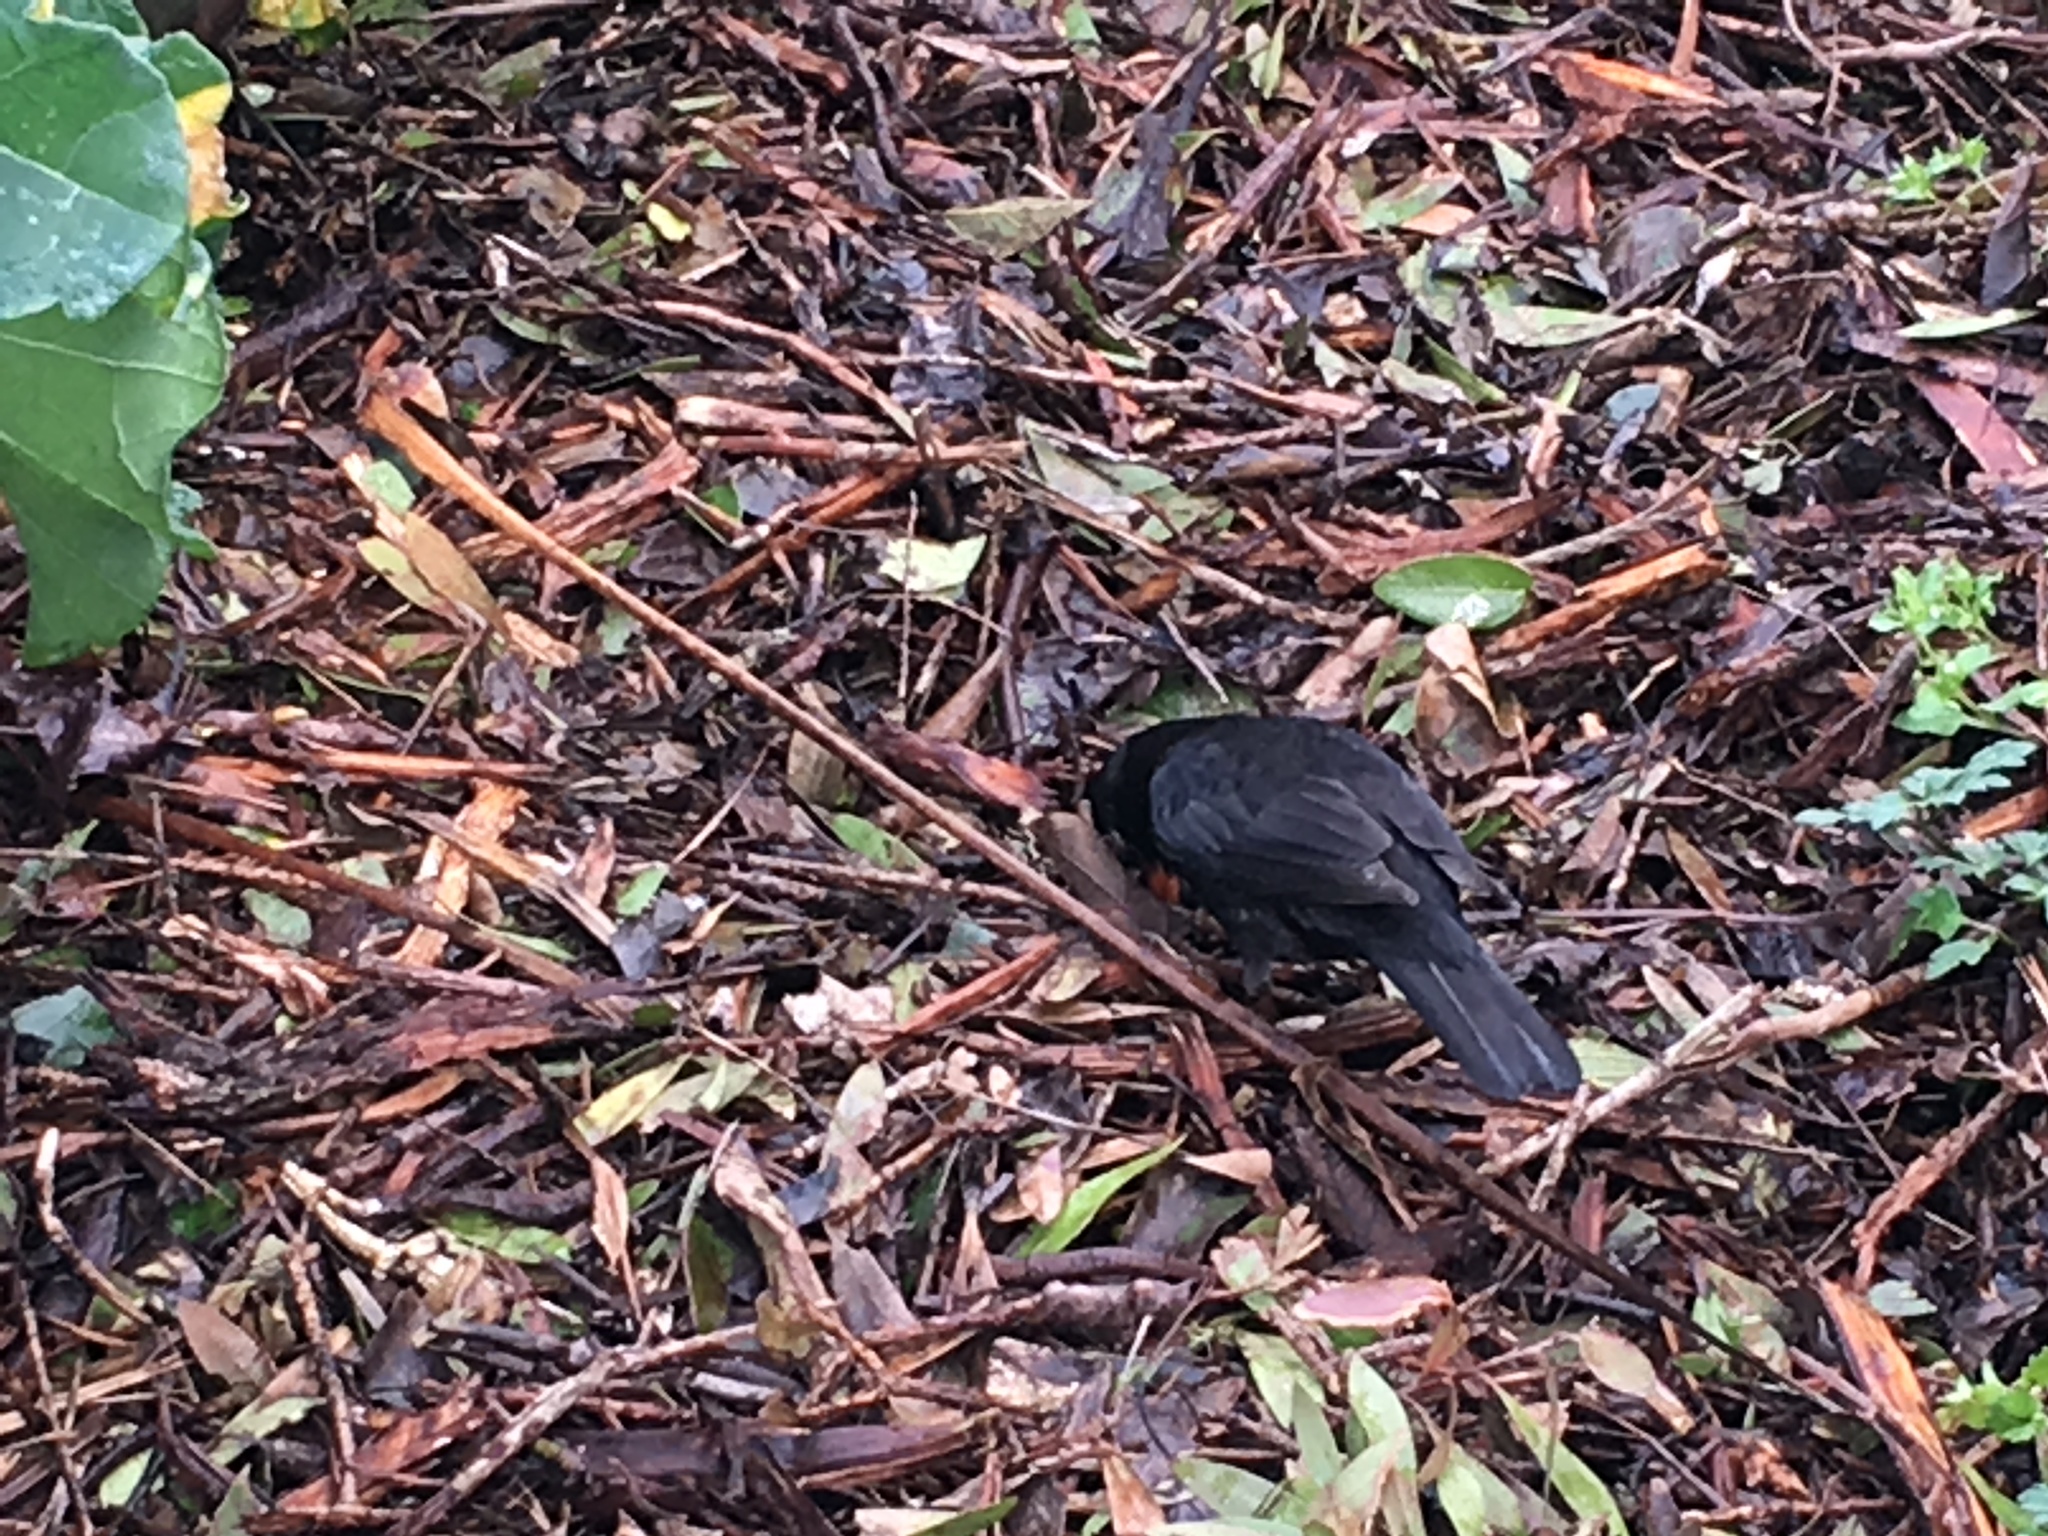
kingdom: Animalia
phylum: Chordata
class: Aves
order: Passeriformes
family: Turdidae
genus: Turdus
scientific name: Turdus merula
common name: Common blackbird
